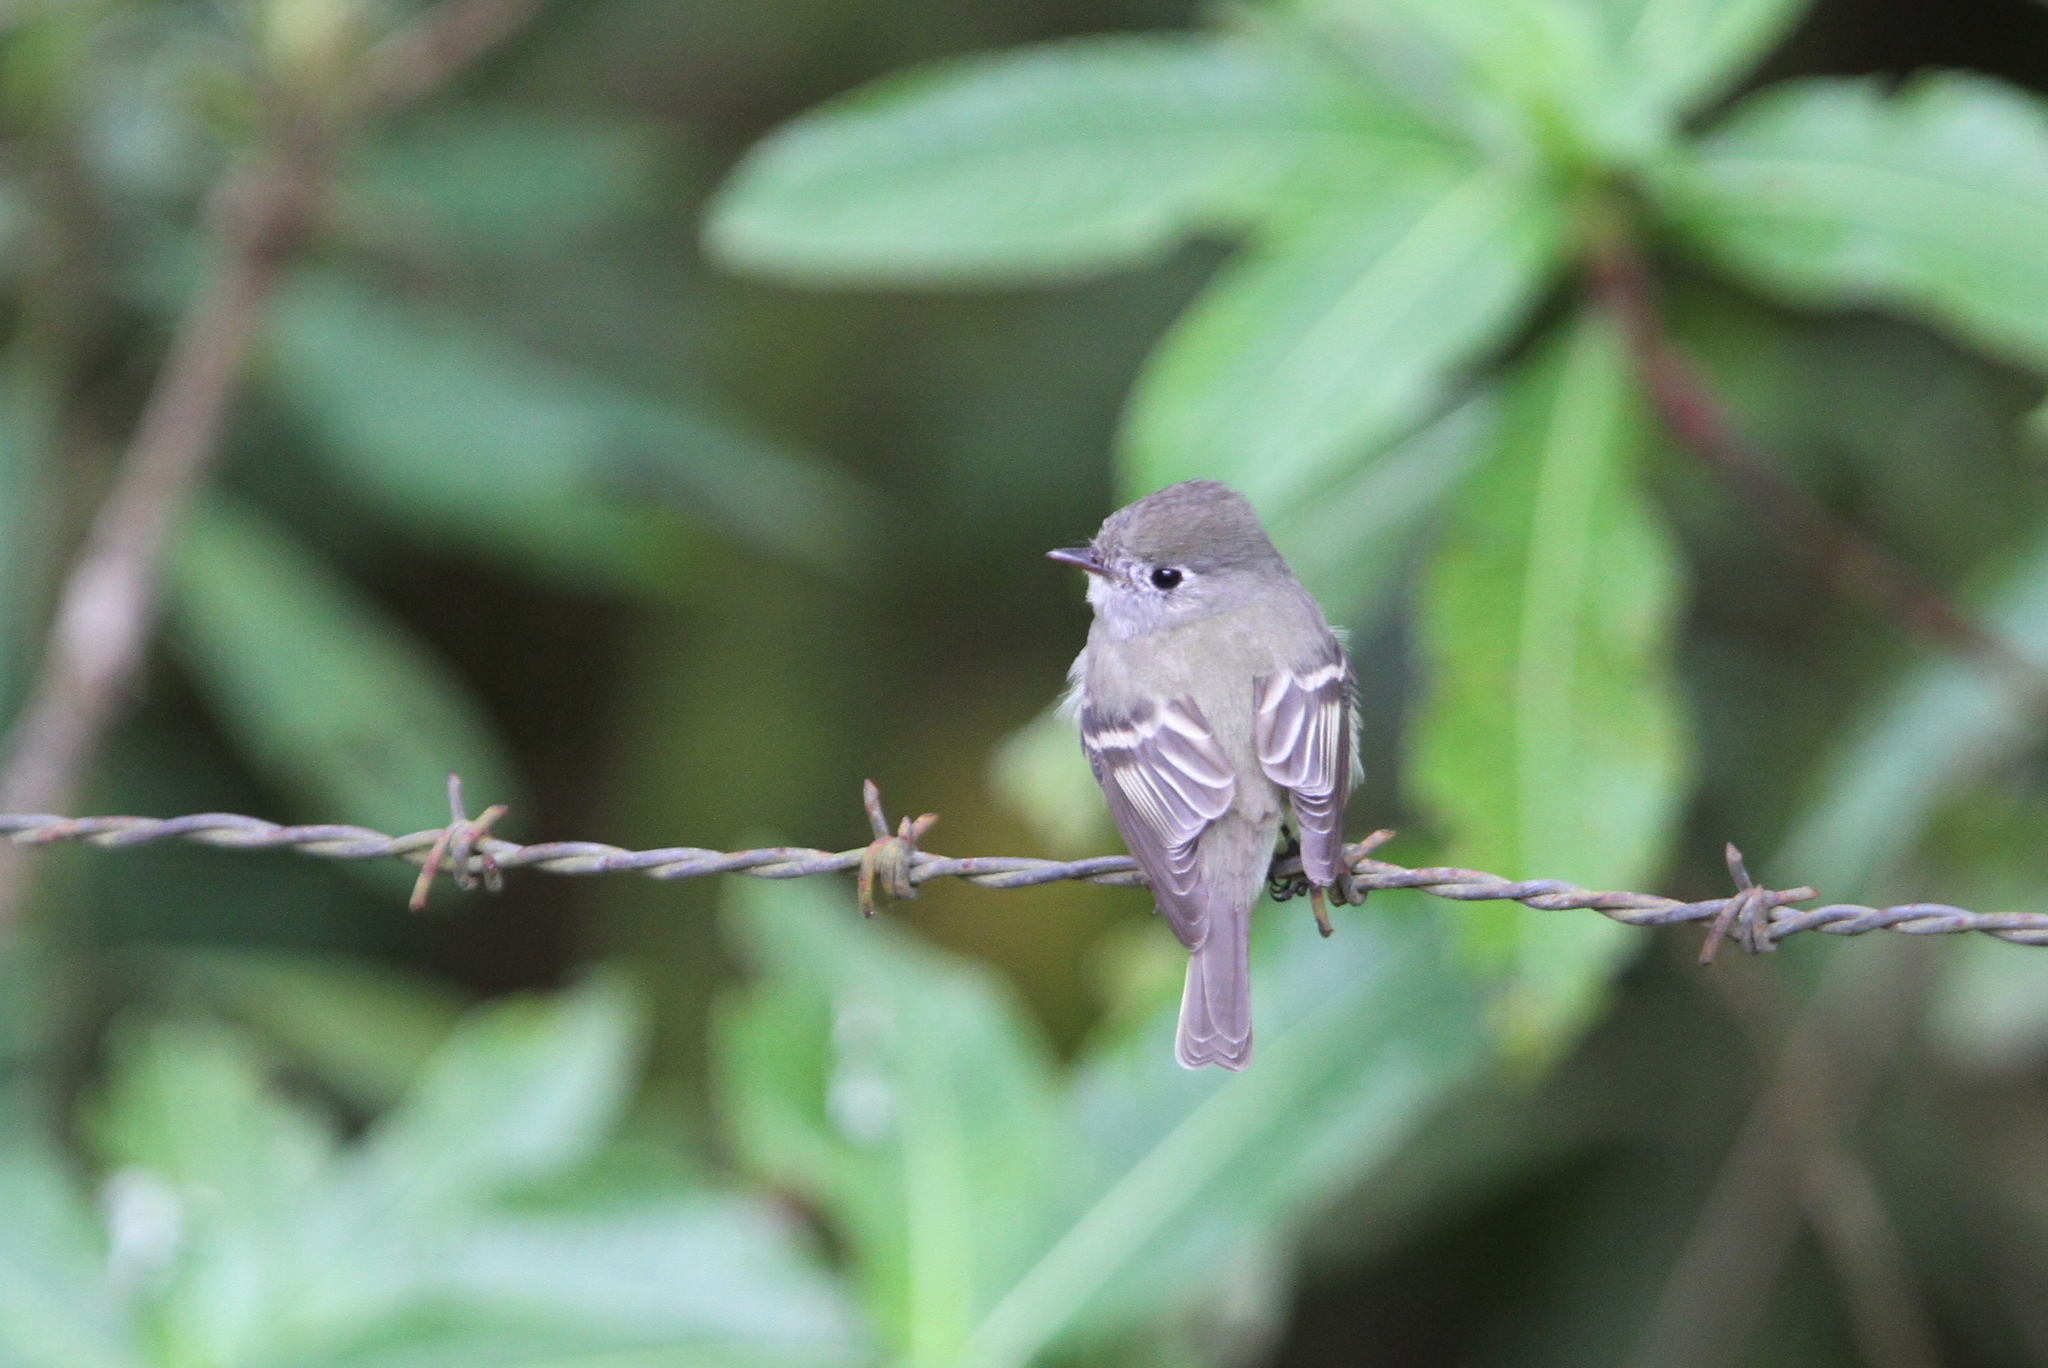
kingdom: Animalia
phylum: Chordata
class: Aves
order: Passeriformes
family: Tyrannidae
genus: Empidonax
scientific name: Empidonax hammondii
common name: Hammond's flycatcher
